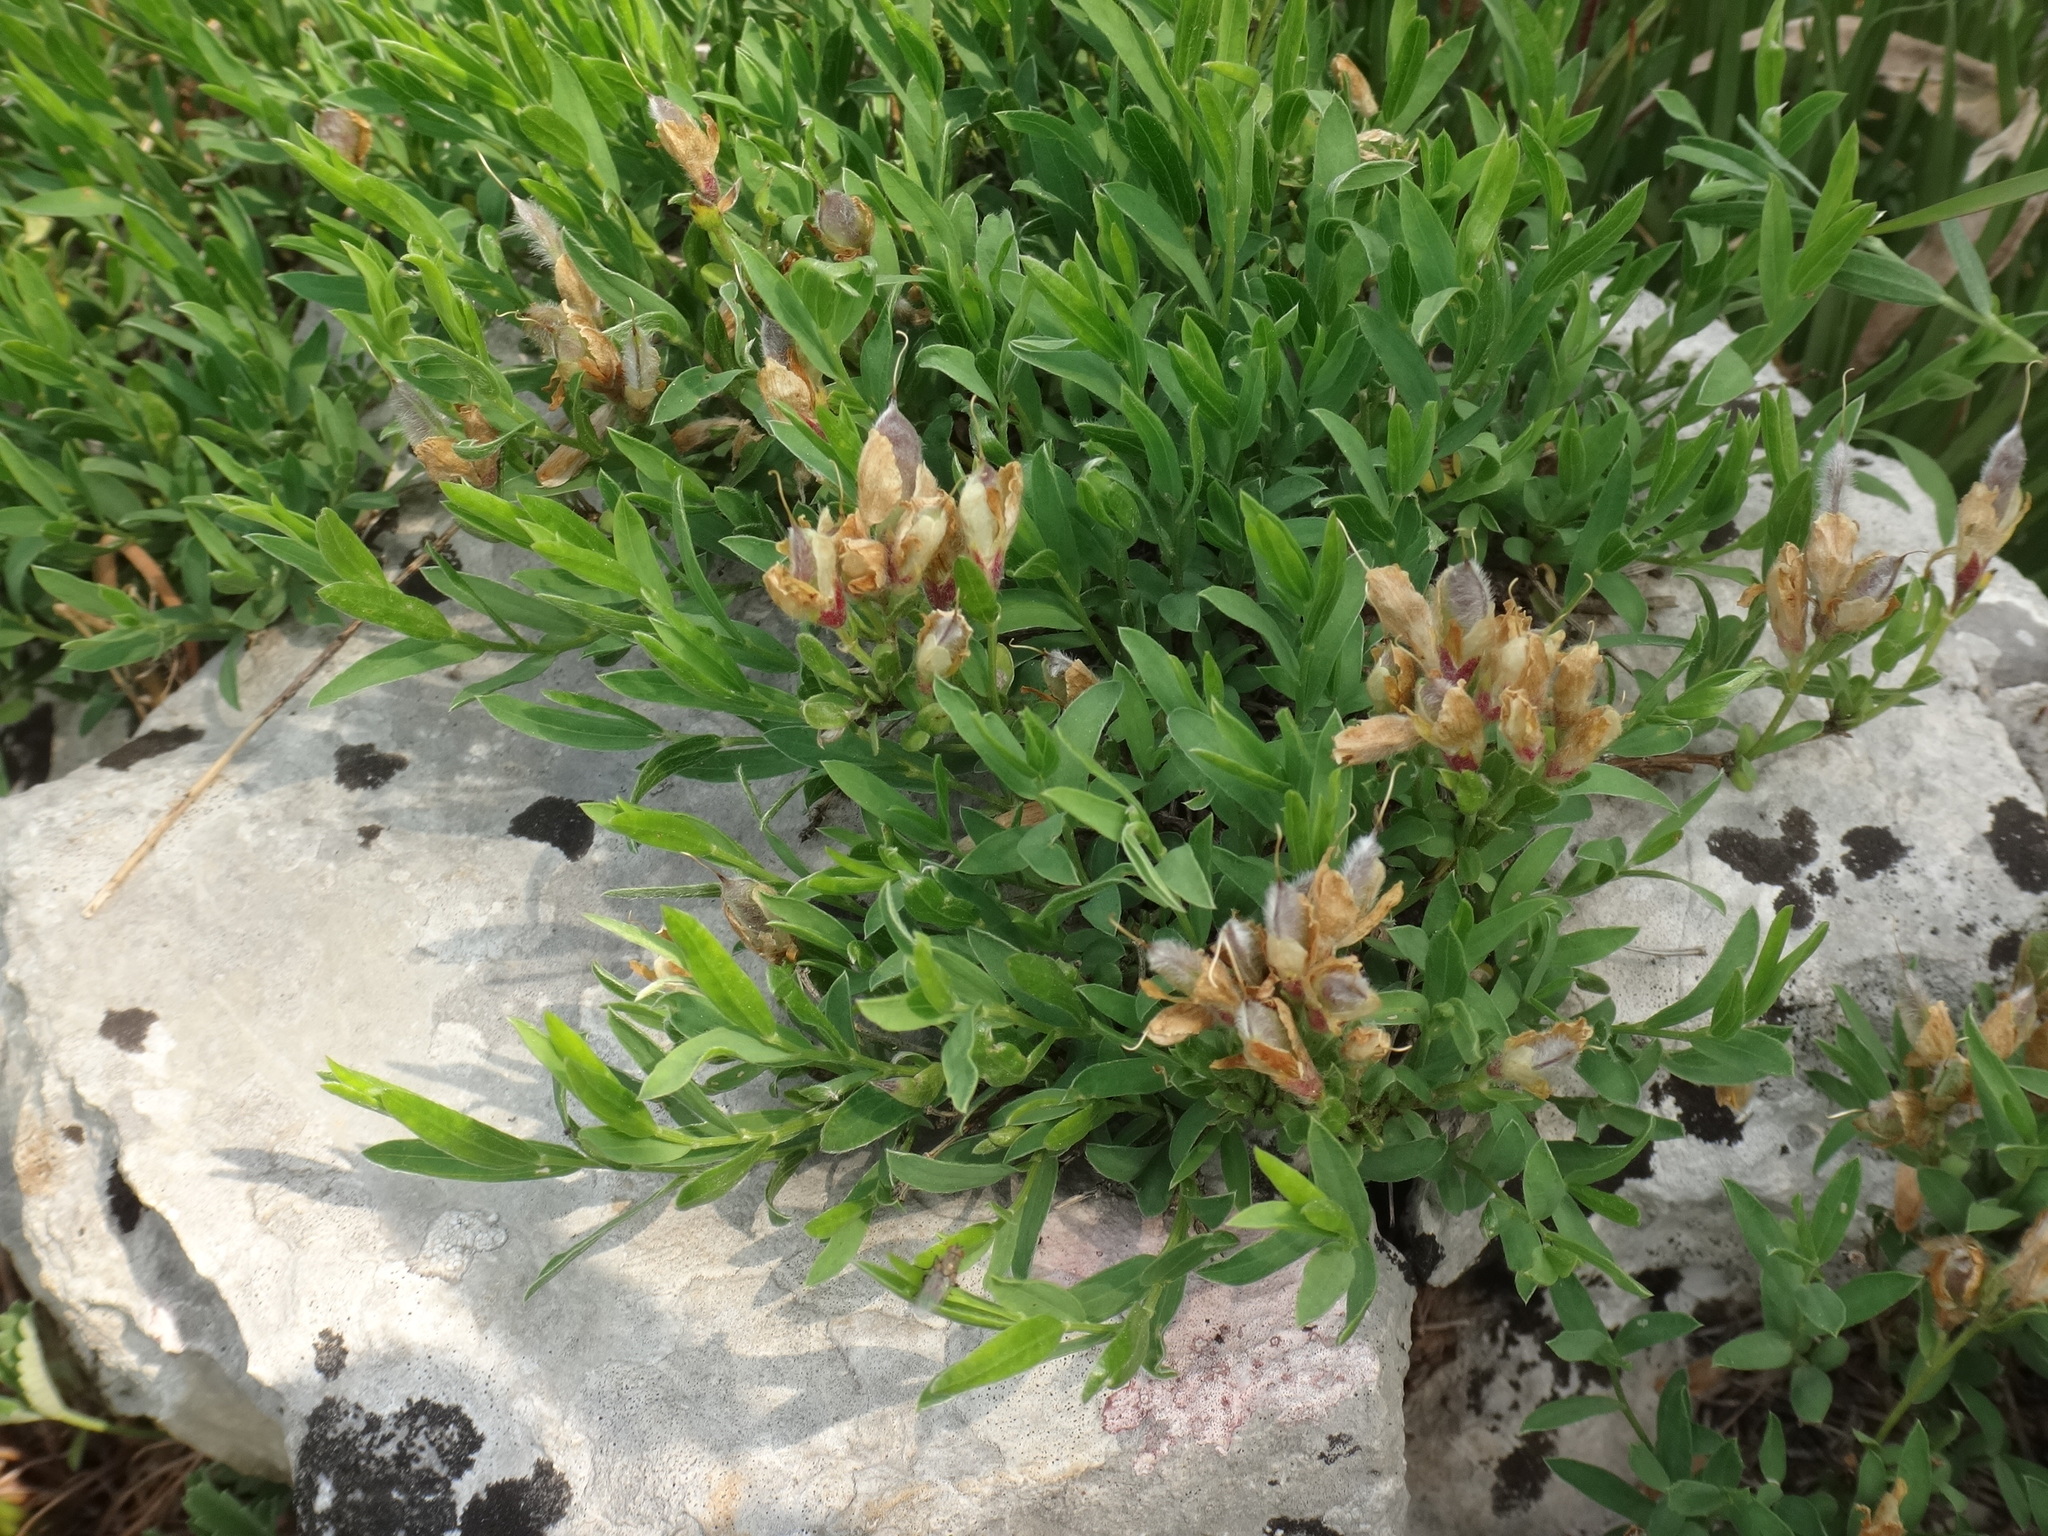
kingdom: Plantae
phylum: Tracheophyta
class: Magnoliopsida
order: Fabales
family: Fabaceae
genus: Genista
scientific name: Genista sericea
